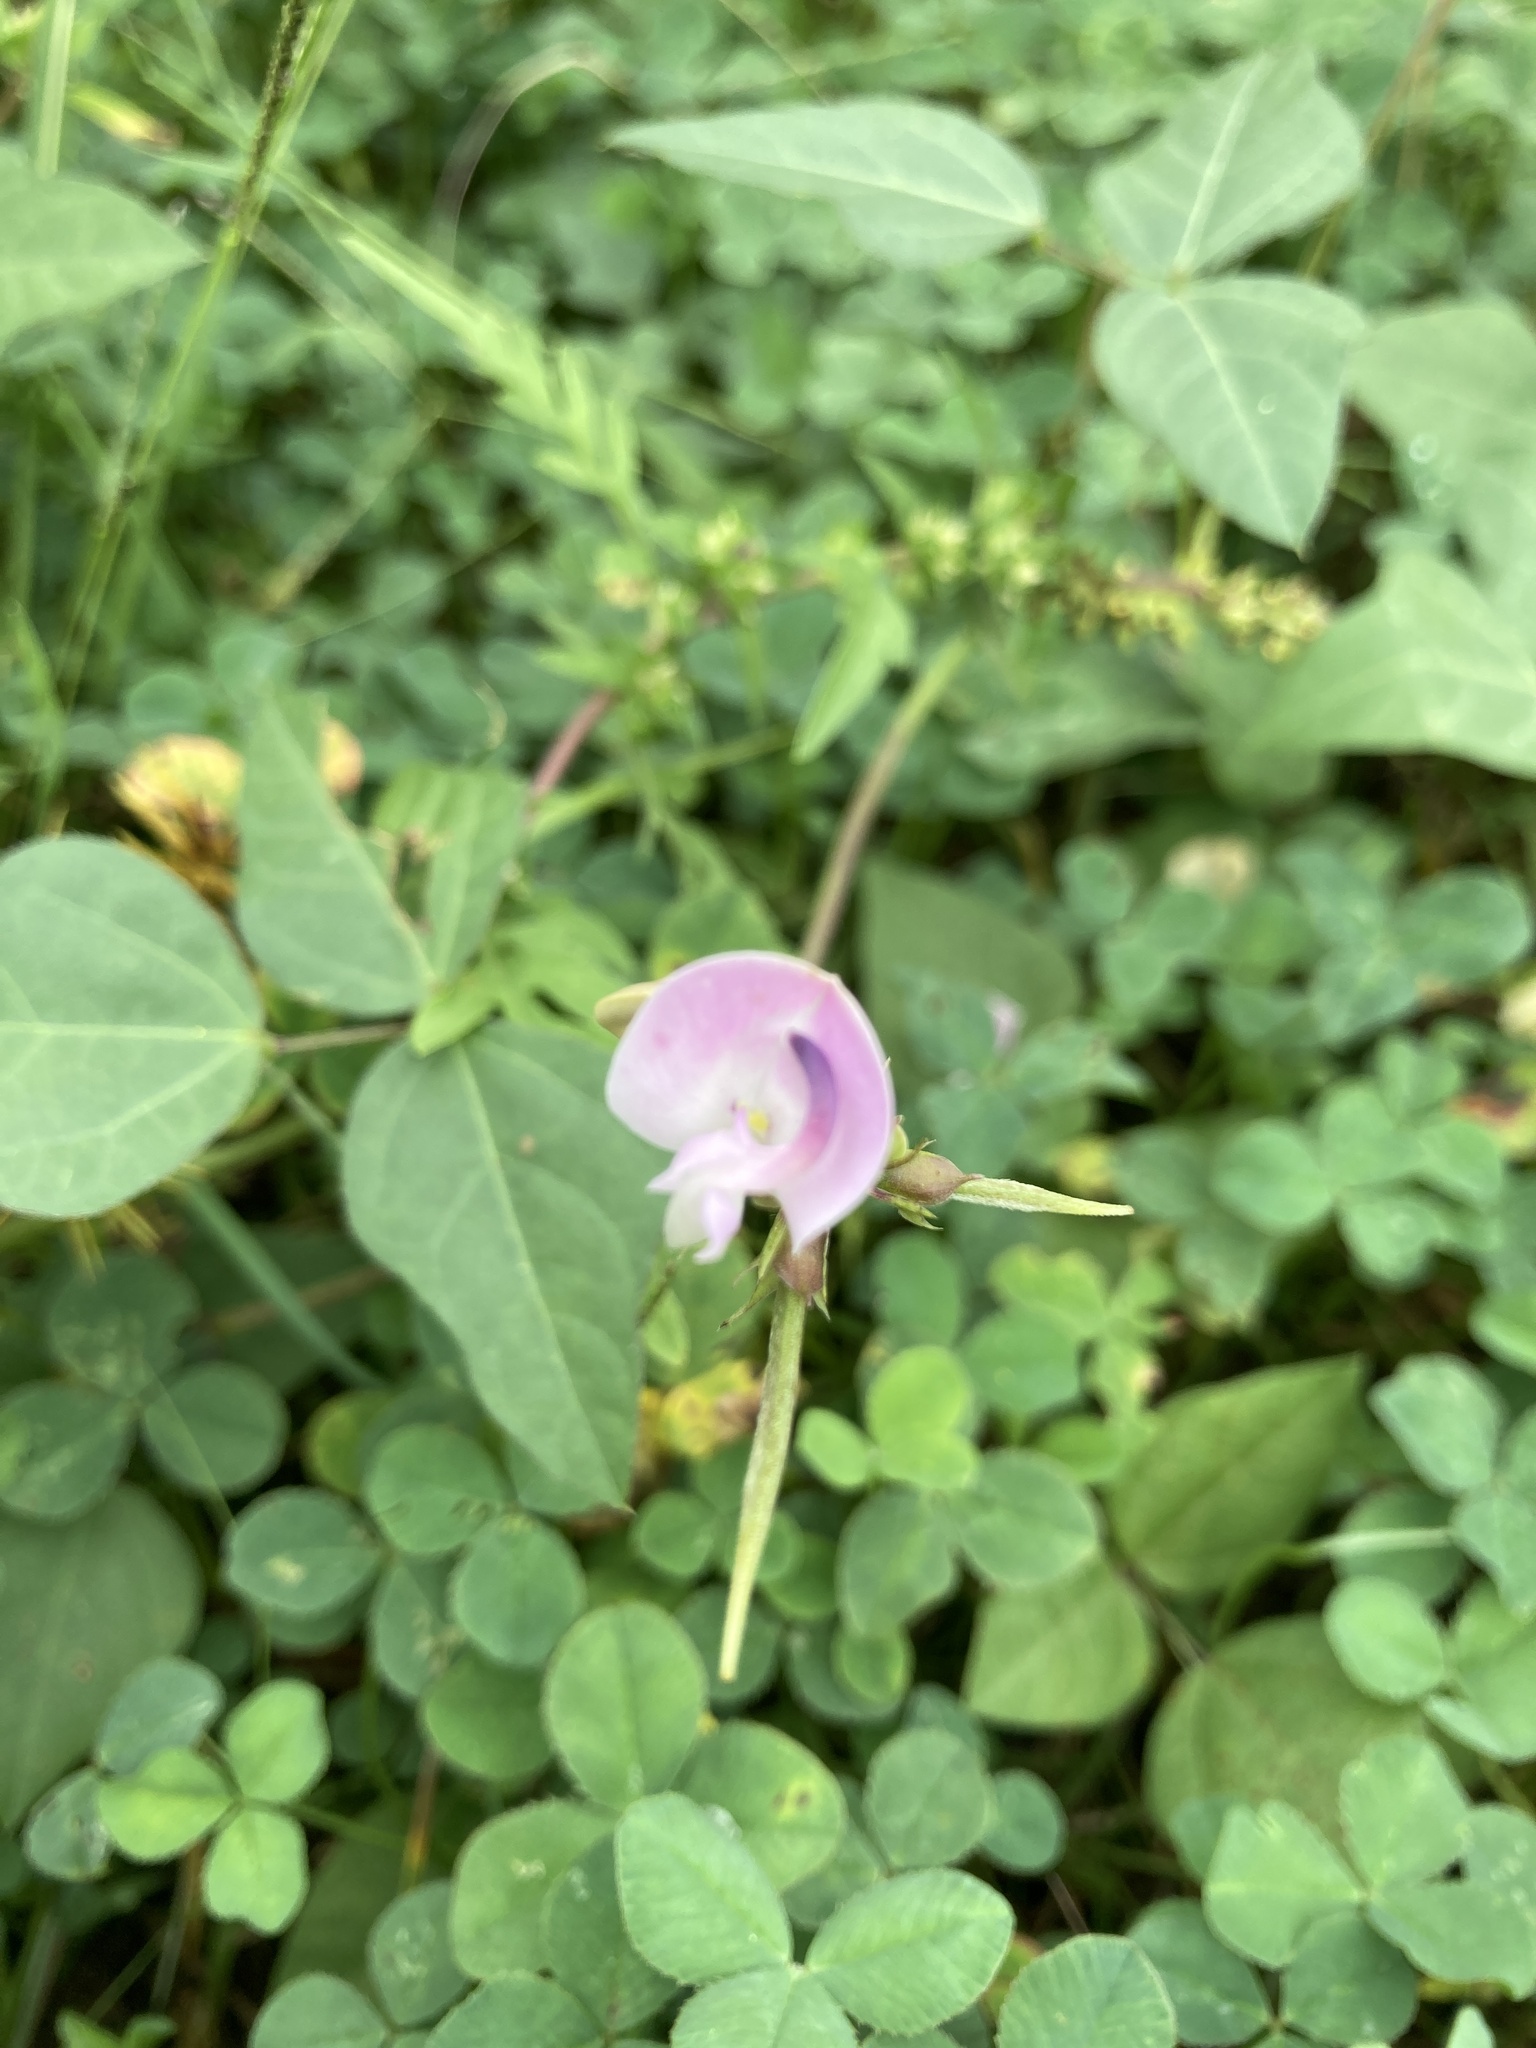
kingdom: Plantae
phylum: Tracheophyta
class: Magnoliopsida
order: Fabales
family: Fabaceae
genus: Strophostyles
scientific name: Strophostyles helvola
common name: Trailing wild bean
